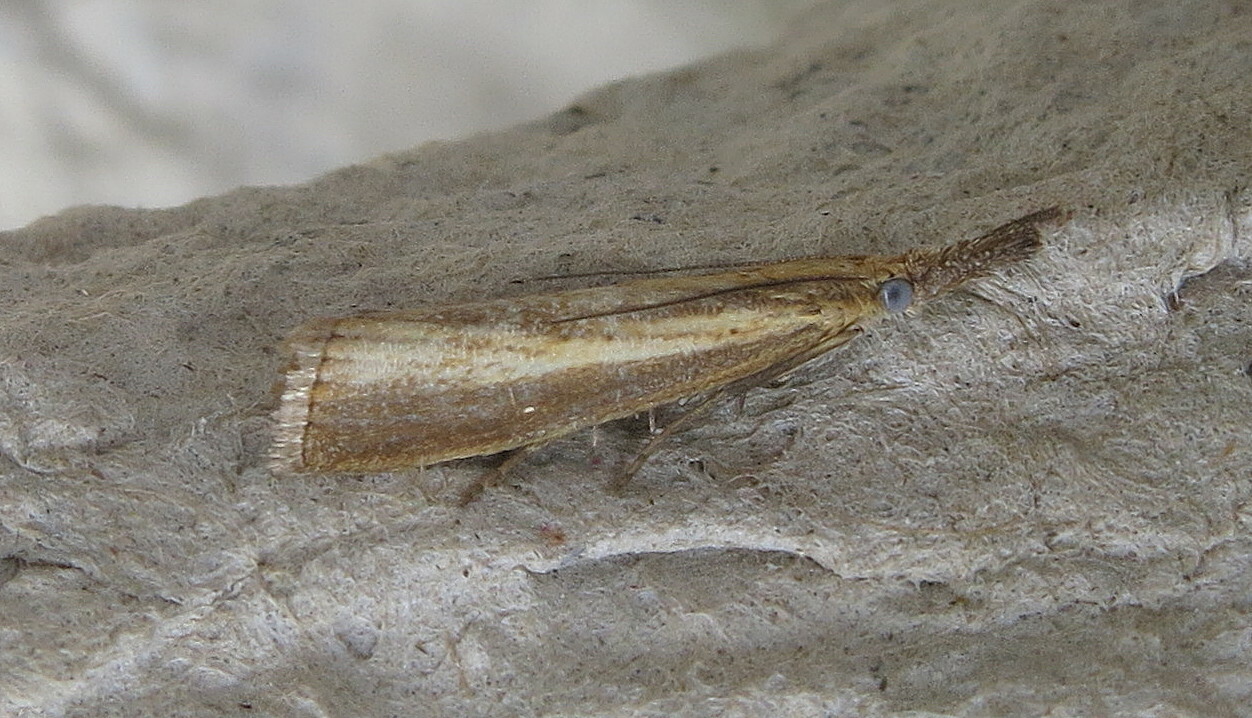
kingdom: Animalia
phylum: Arthropoda
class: Insecta
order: Lepidoptera
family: Crambidae
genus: Agriphila
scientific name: Agriphila straminella
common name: Straw grass-veneer
